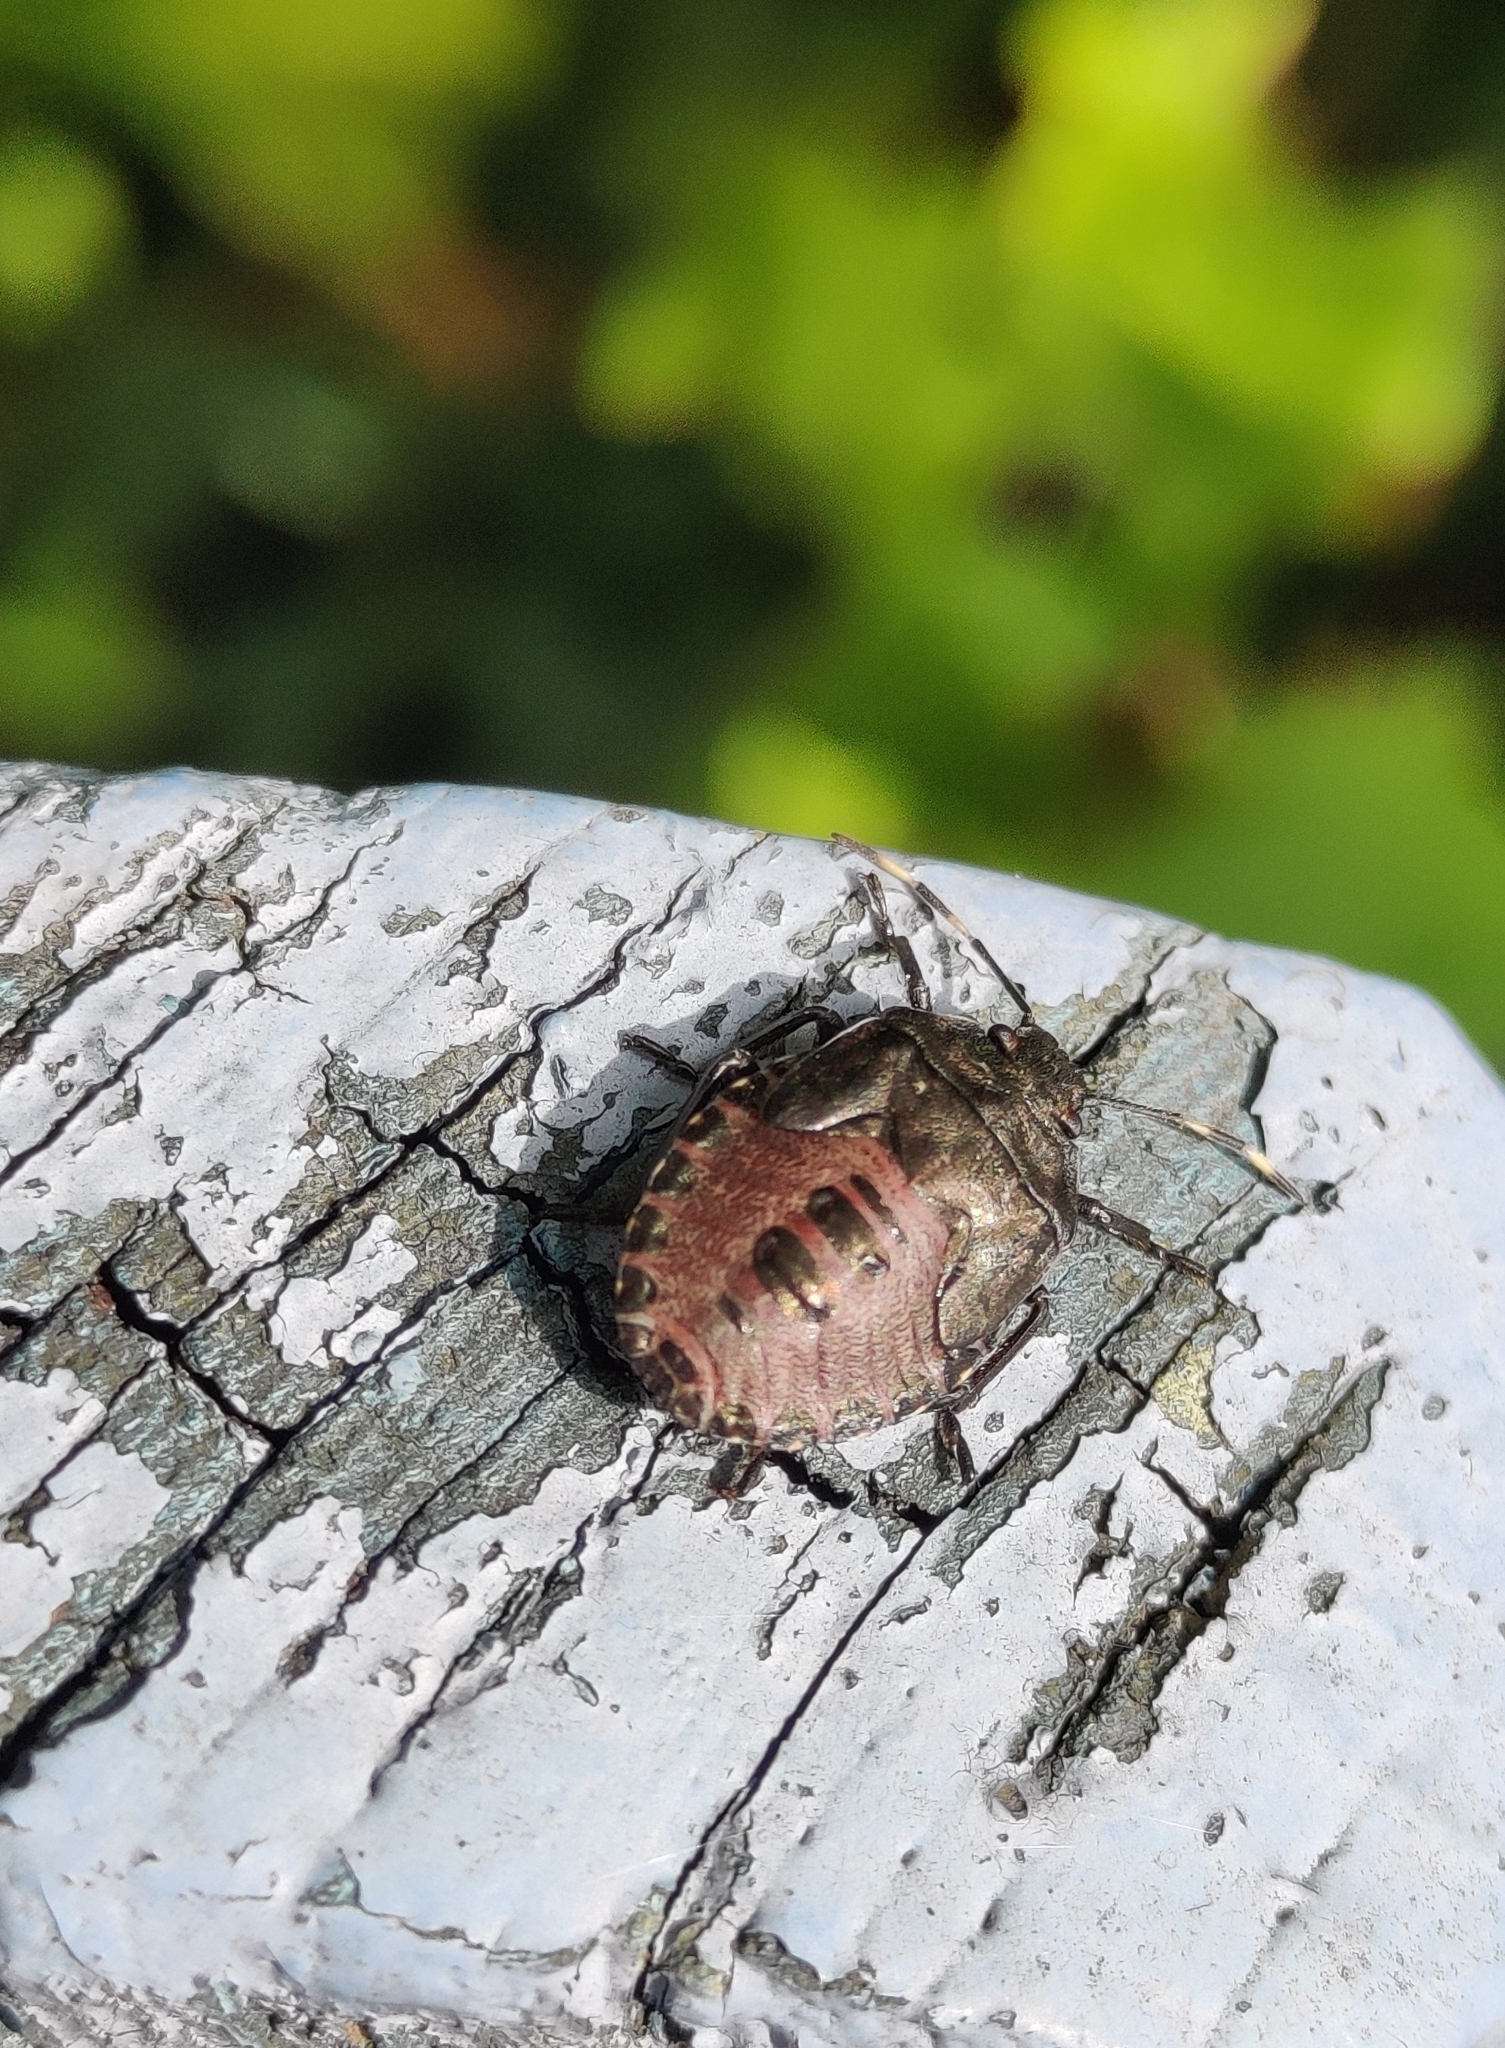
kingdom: Animalia
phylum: Arthropoda
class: Insecta
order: Hemiptera
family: Pentatomidae
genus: Rhaphigaster
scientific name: Rhaphigaster nebulosa
